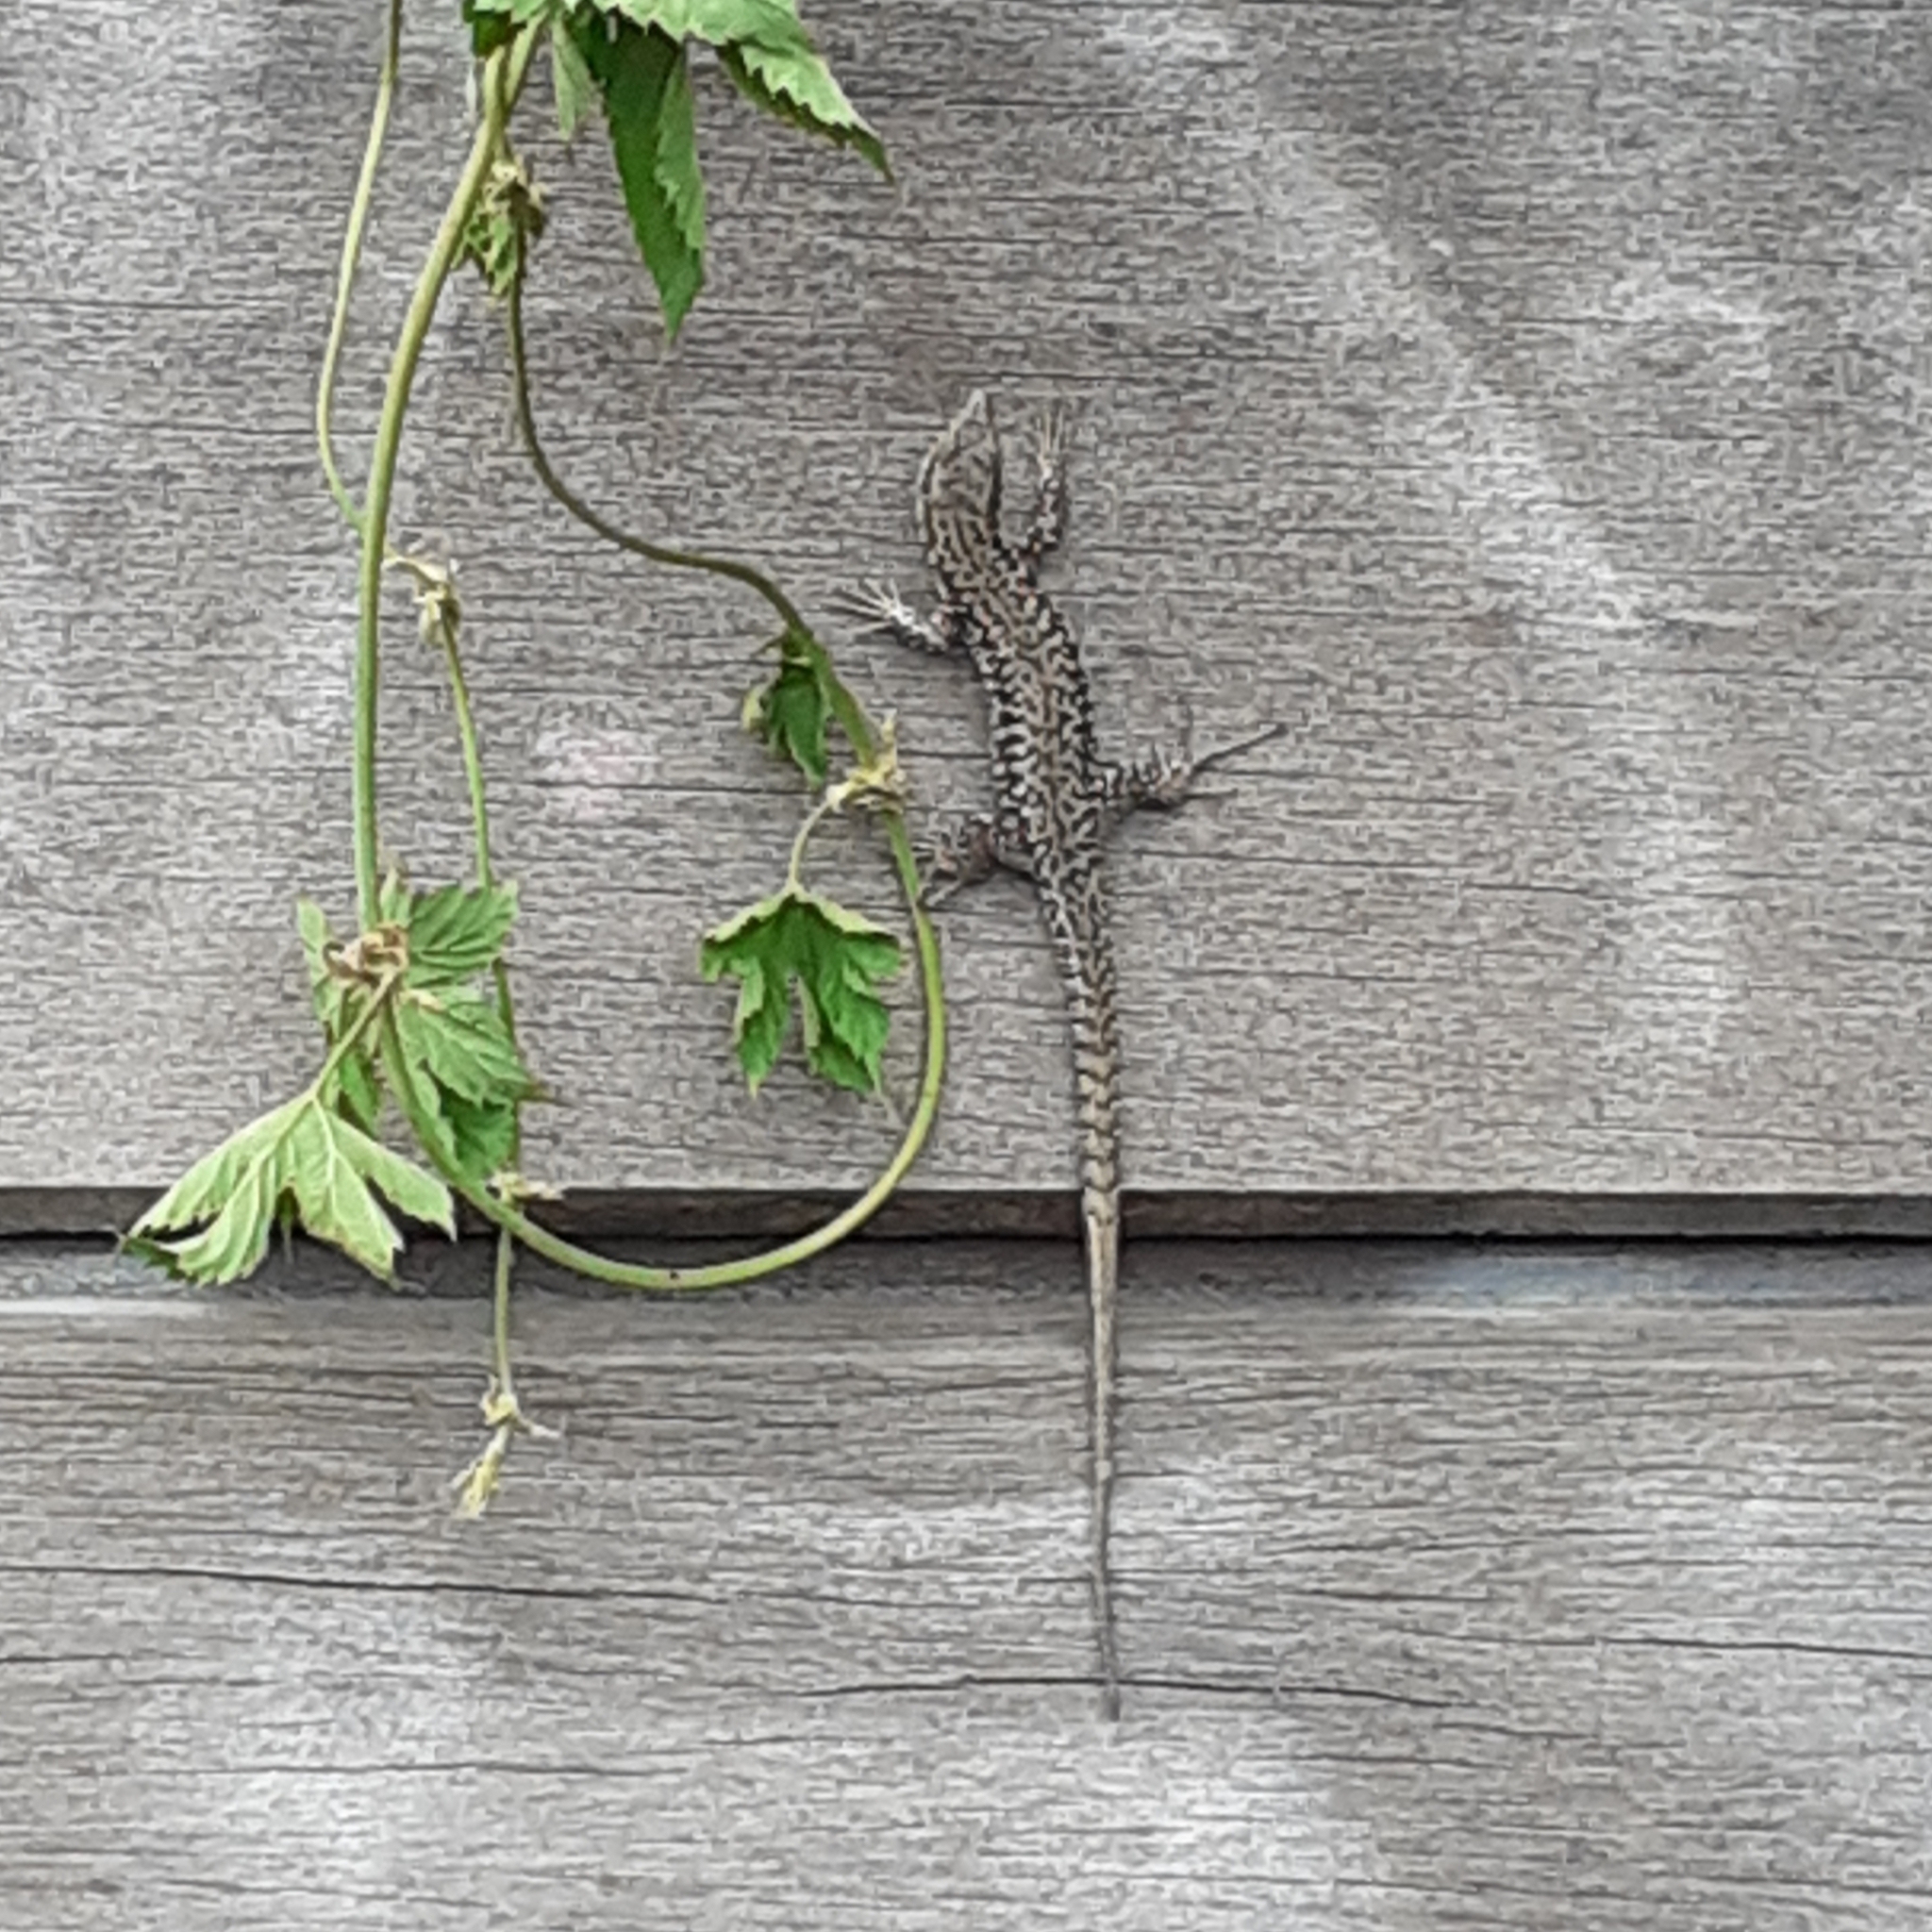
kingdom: Animalia
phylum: Chordata
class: Squamata
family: Lacertidae
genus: Podarcis
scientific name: Podarcis muralis
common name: Common wall lizard
